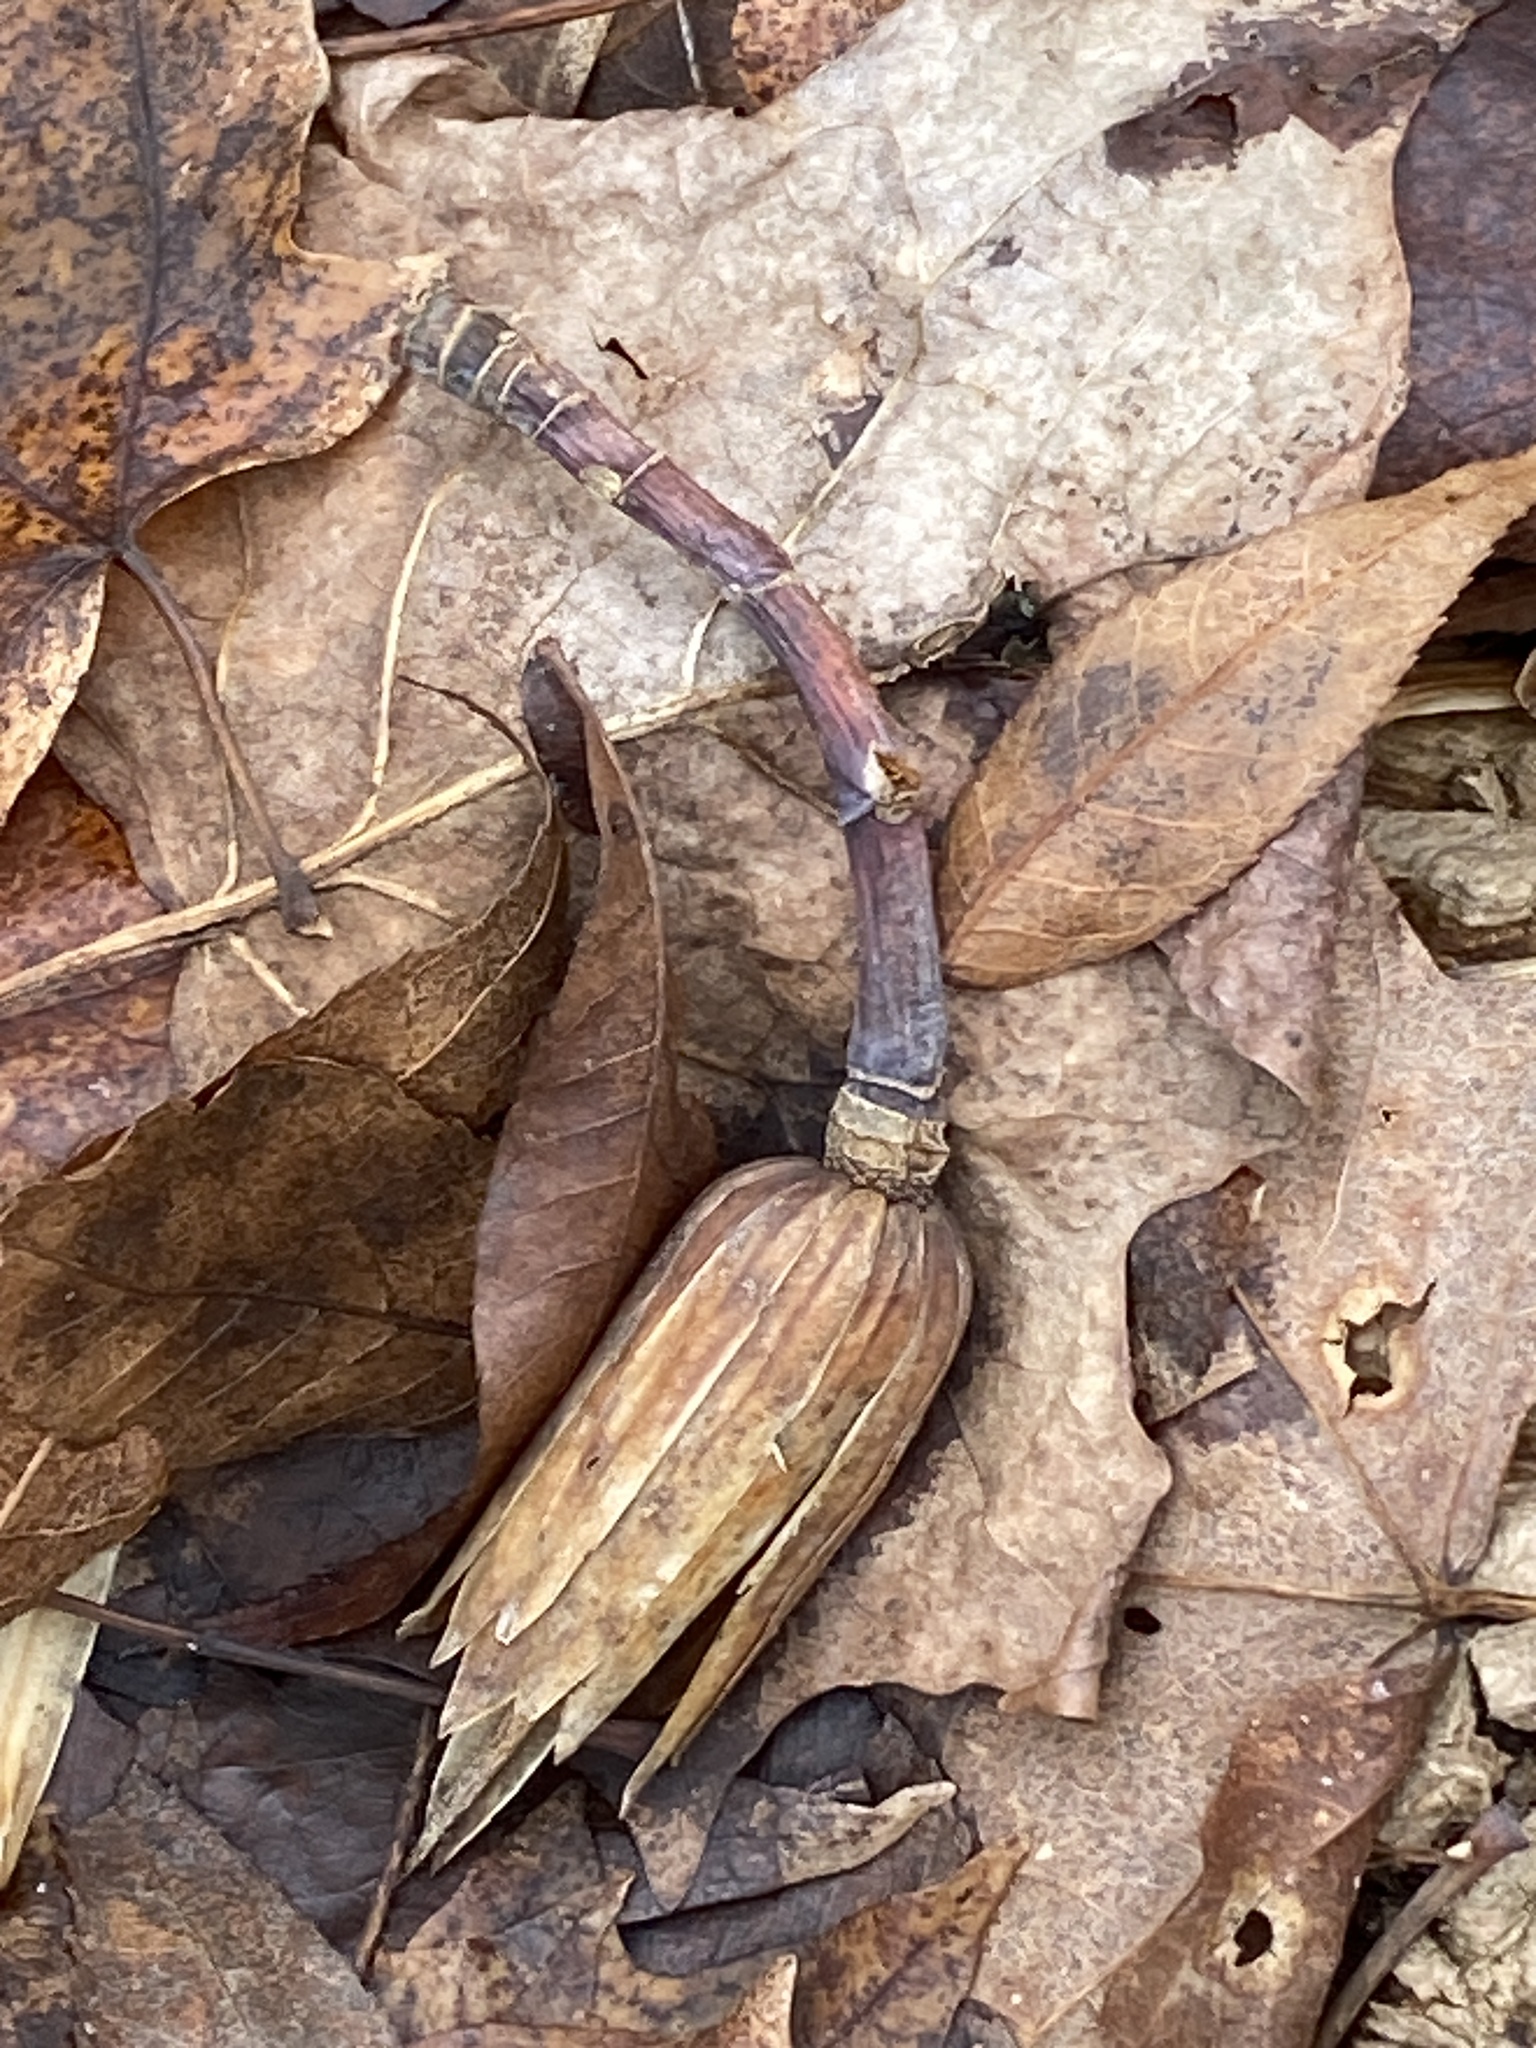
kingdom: Plantae
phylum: Tracheophyta
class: Magnoliopsida
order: Magnoliales
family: Magnoliaceae
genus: Liriodendron
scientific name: Liriodendron tulipifera
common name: Tulip tree
